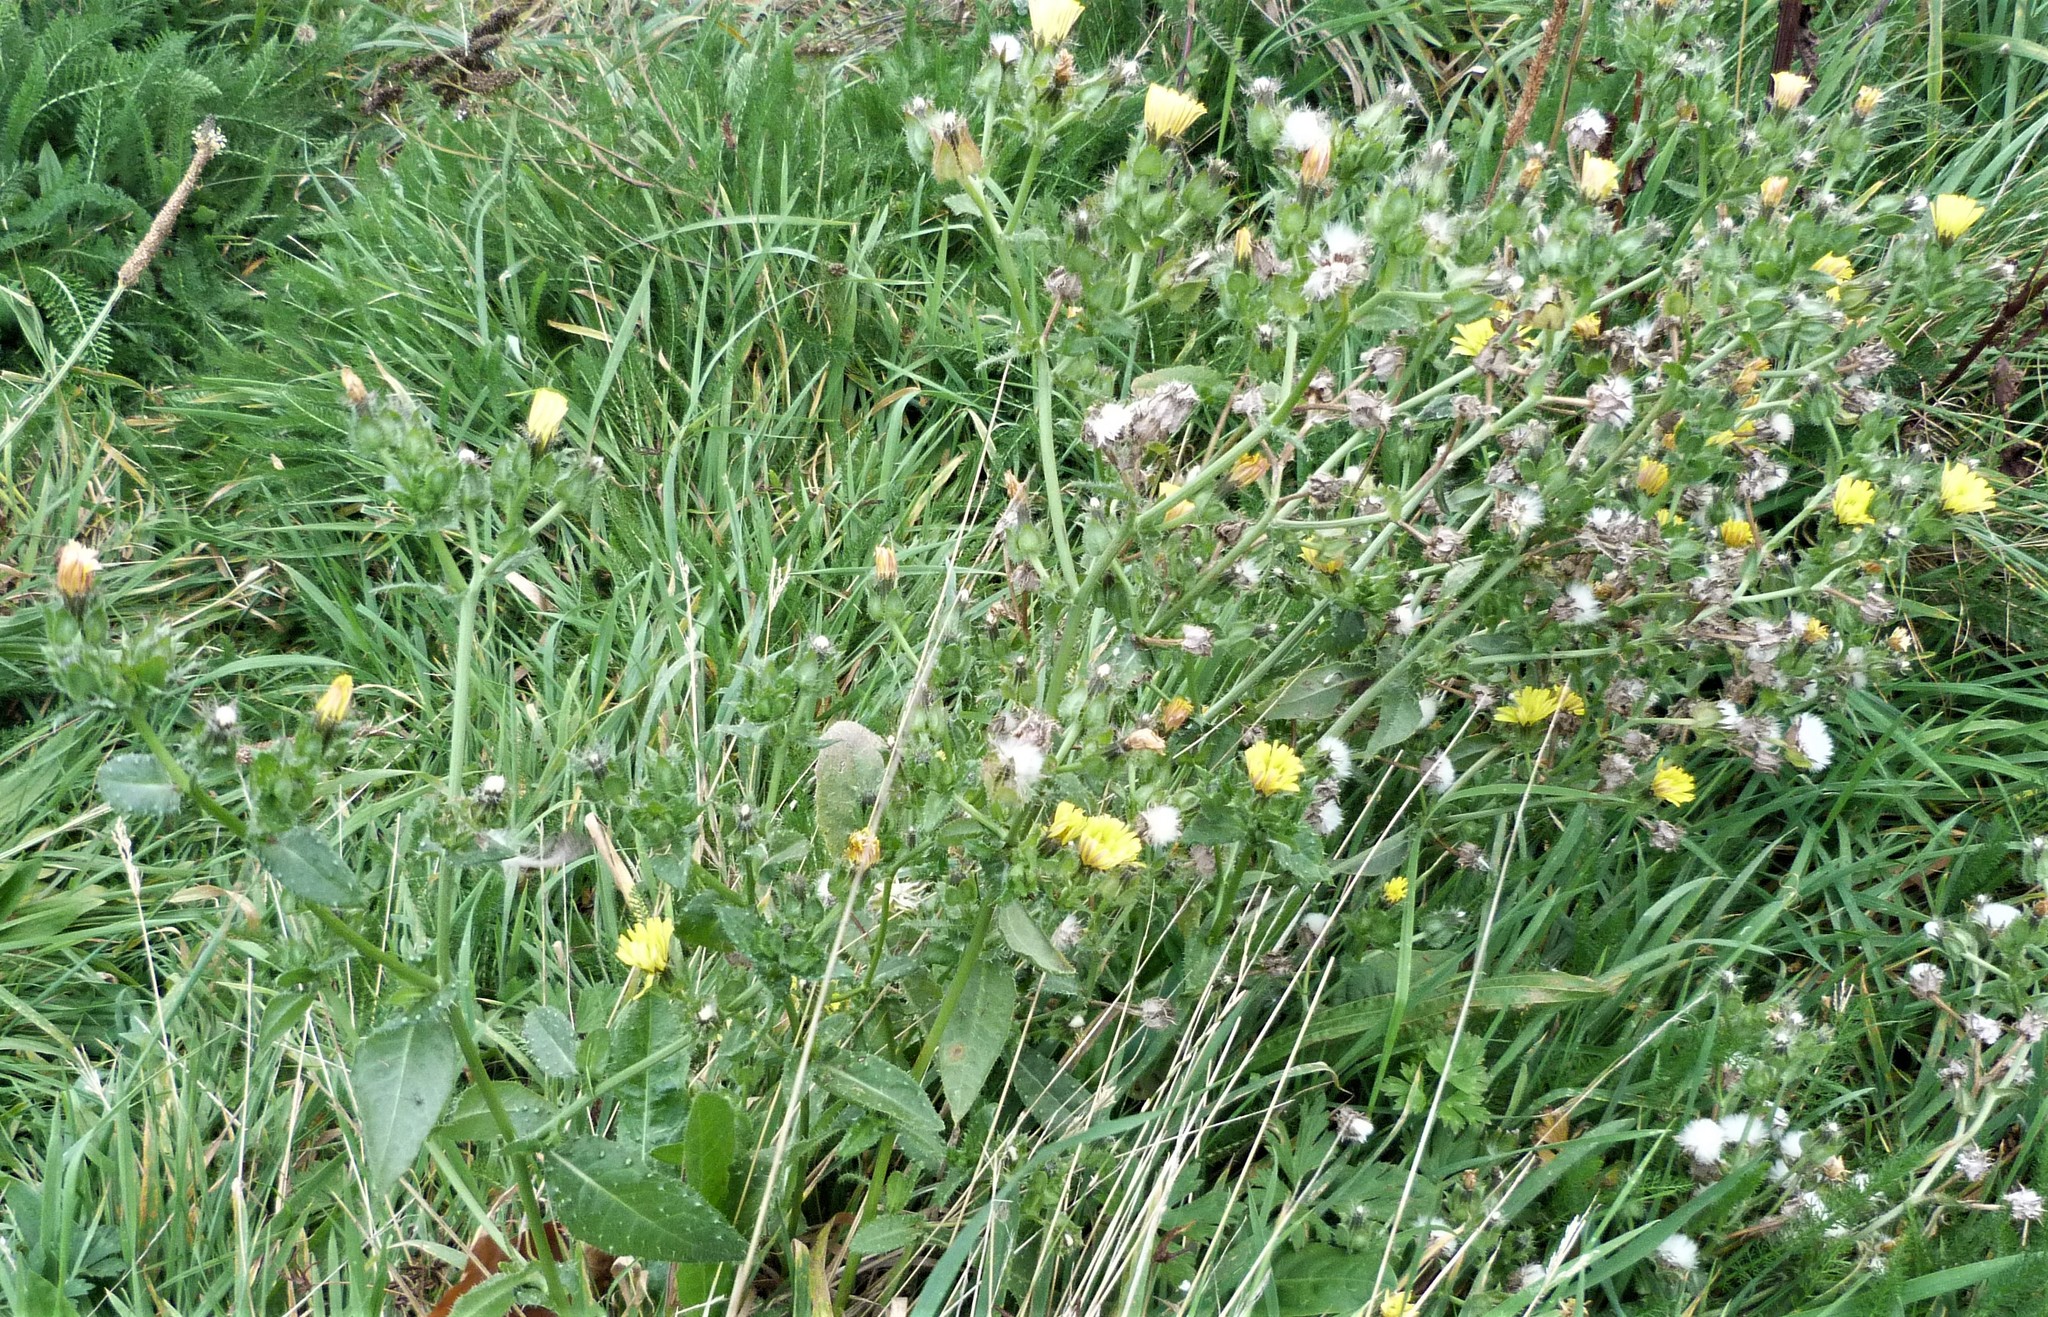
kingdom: Plantae
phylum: Tracheophyta
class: Magnoliopsida
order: Asterales
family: Asteraceae
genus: Helminthotheca
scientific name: Helminthotheca echioides
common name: Ox-tongue
